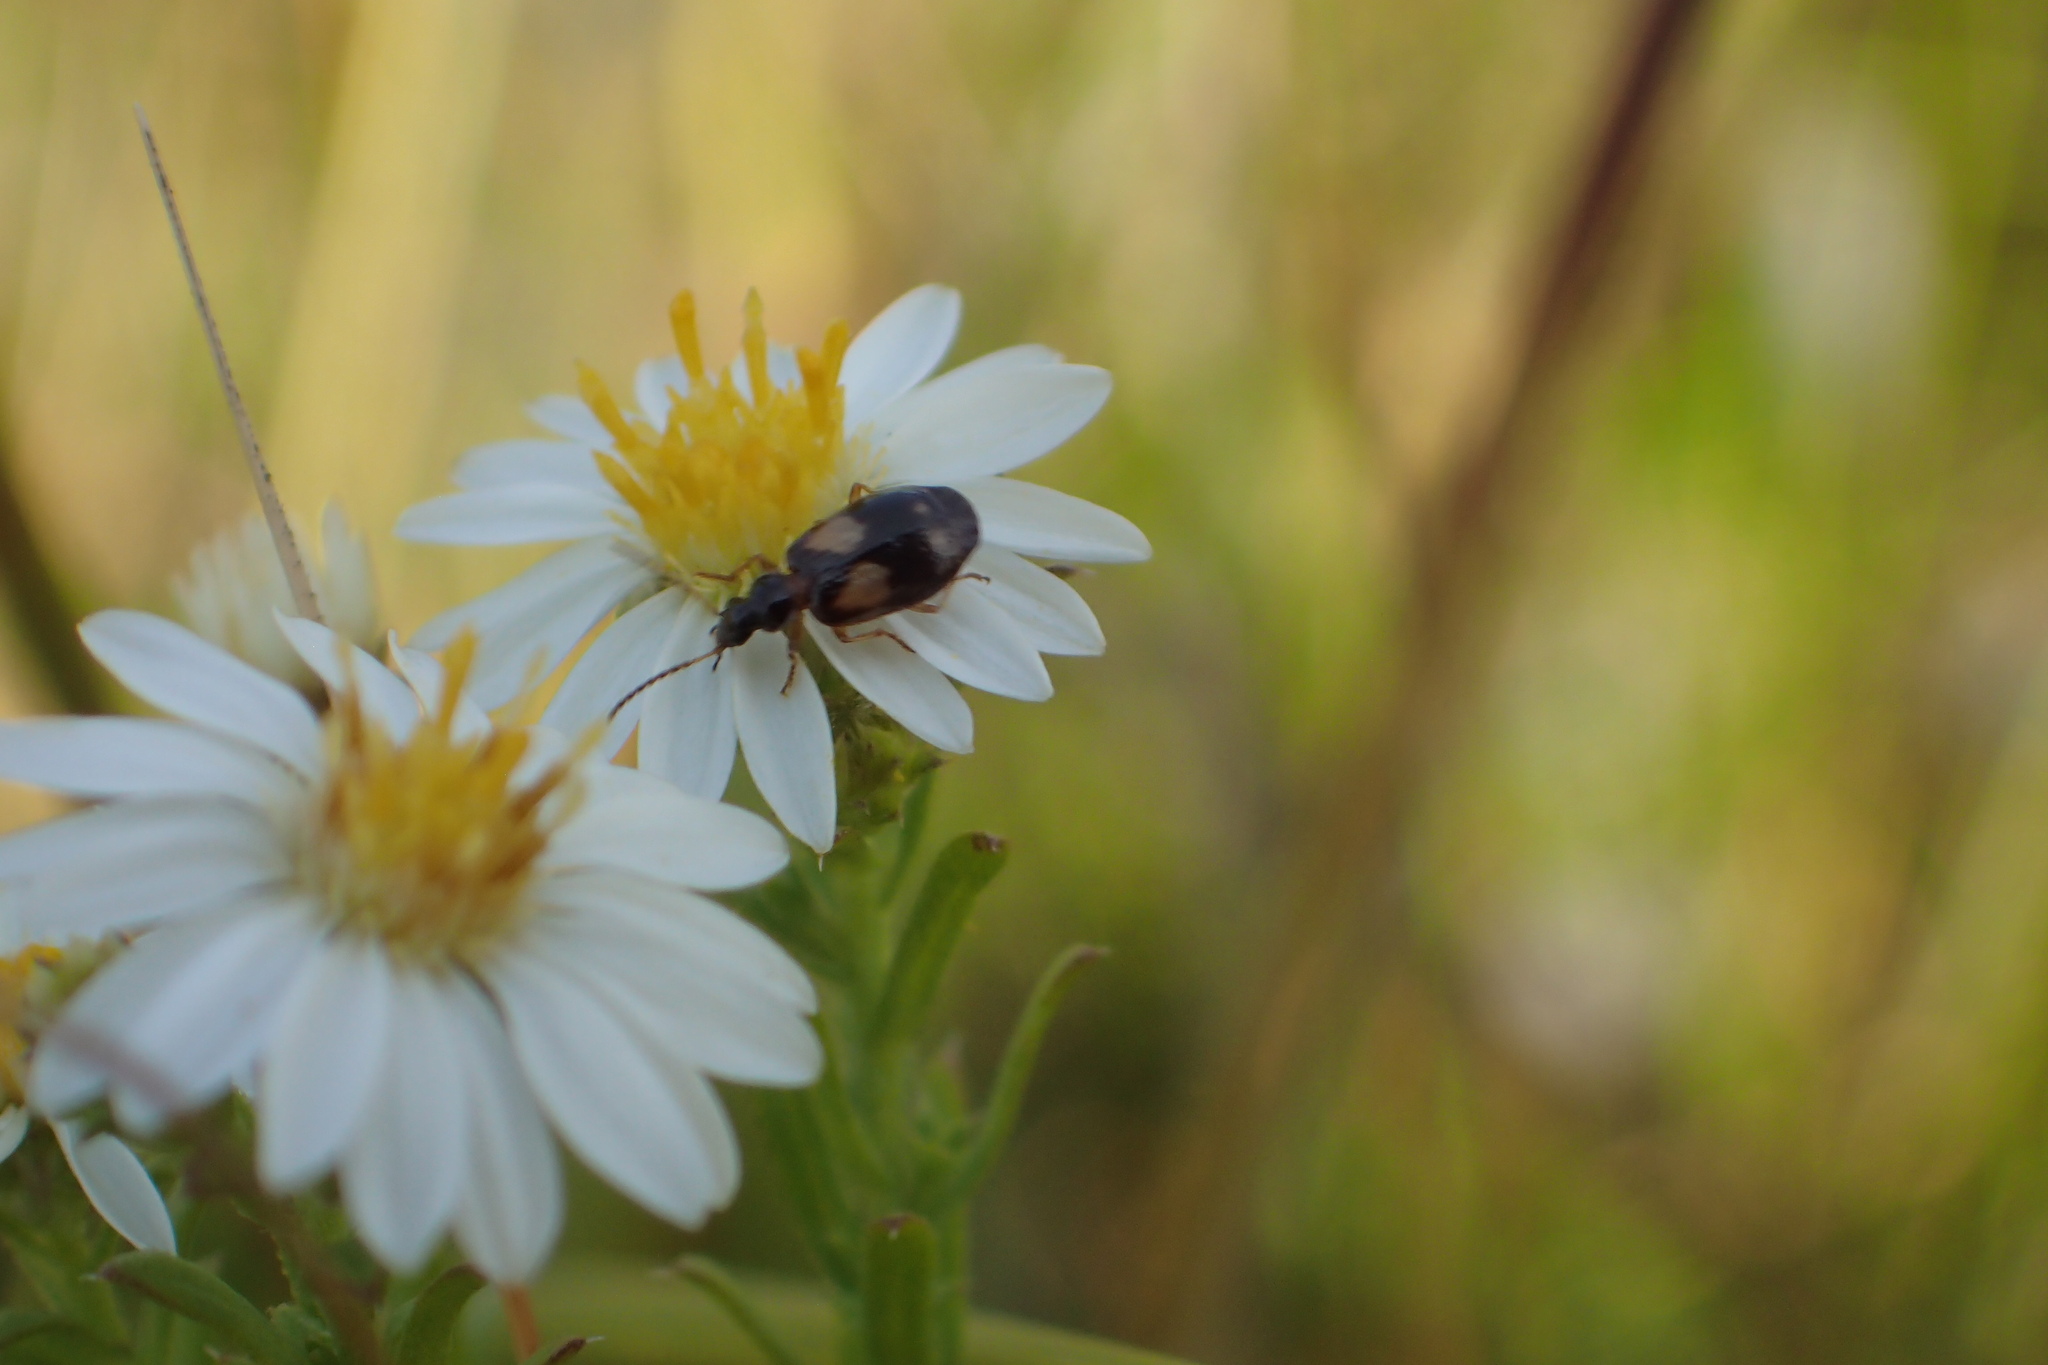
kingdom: Animalia
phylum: Arthropoda
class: Insecta
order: Coleoptera
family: Carabidae
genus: Lebia
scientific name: Lebia ornata
